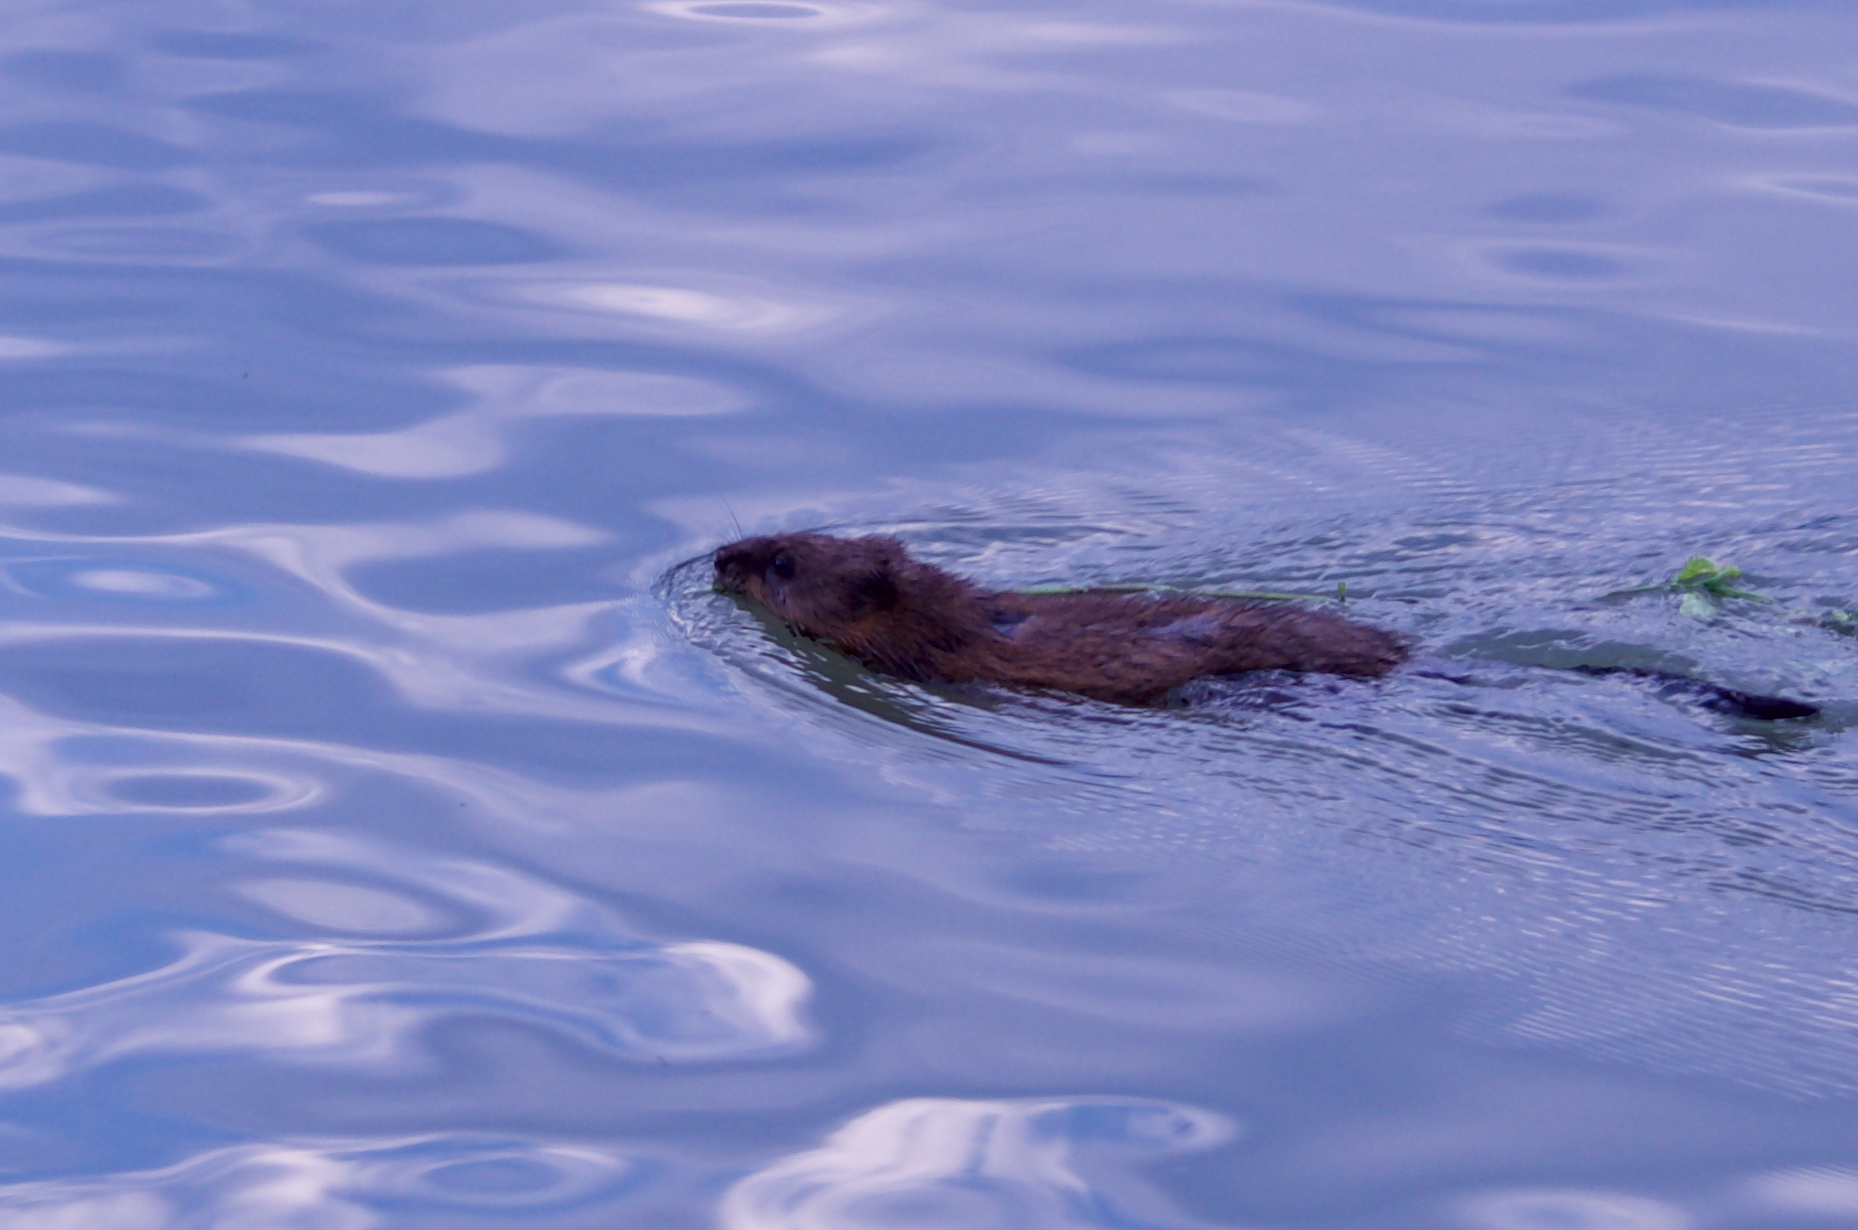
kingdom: Animalia
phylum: Chordata
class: Mammalia
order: Rodentia
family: Cricetidae
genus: Ondatra
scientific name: Ondatra zibethicus
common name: Muskrat
